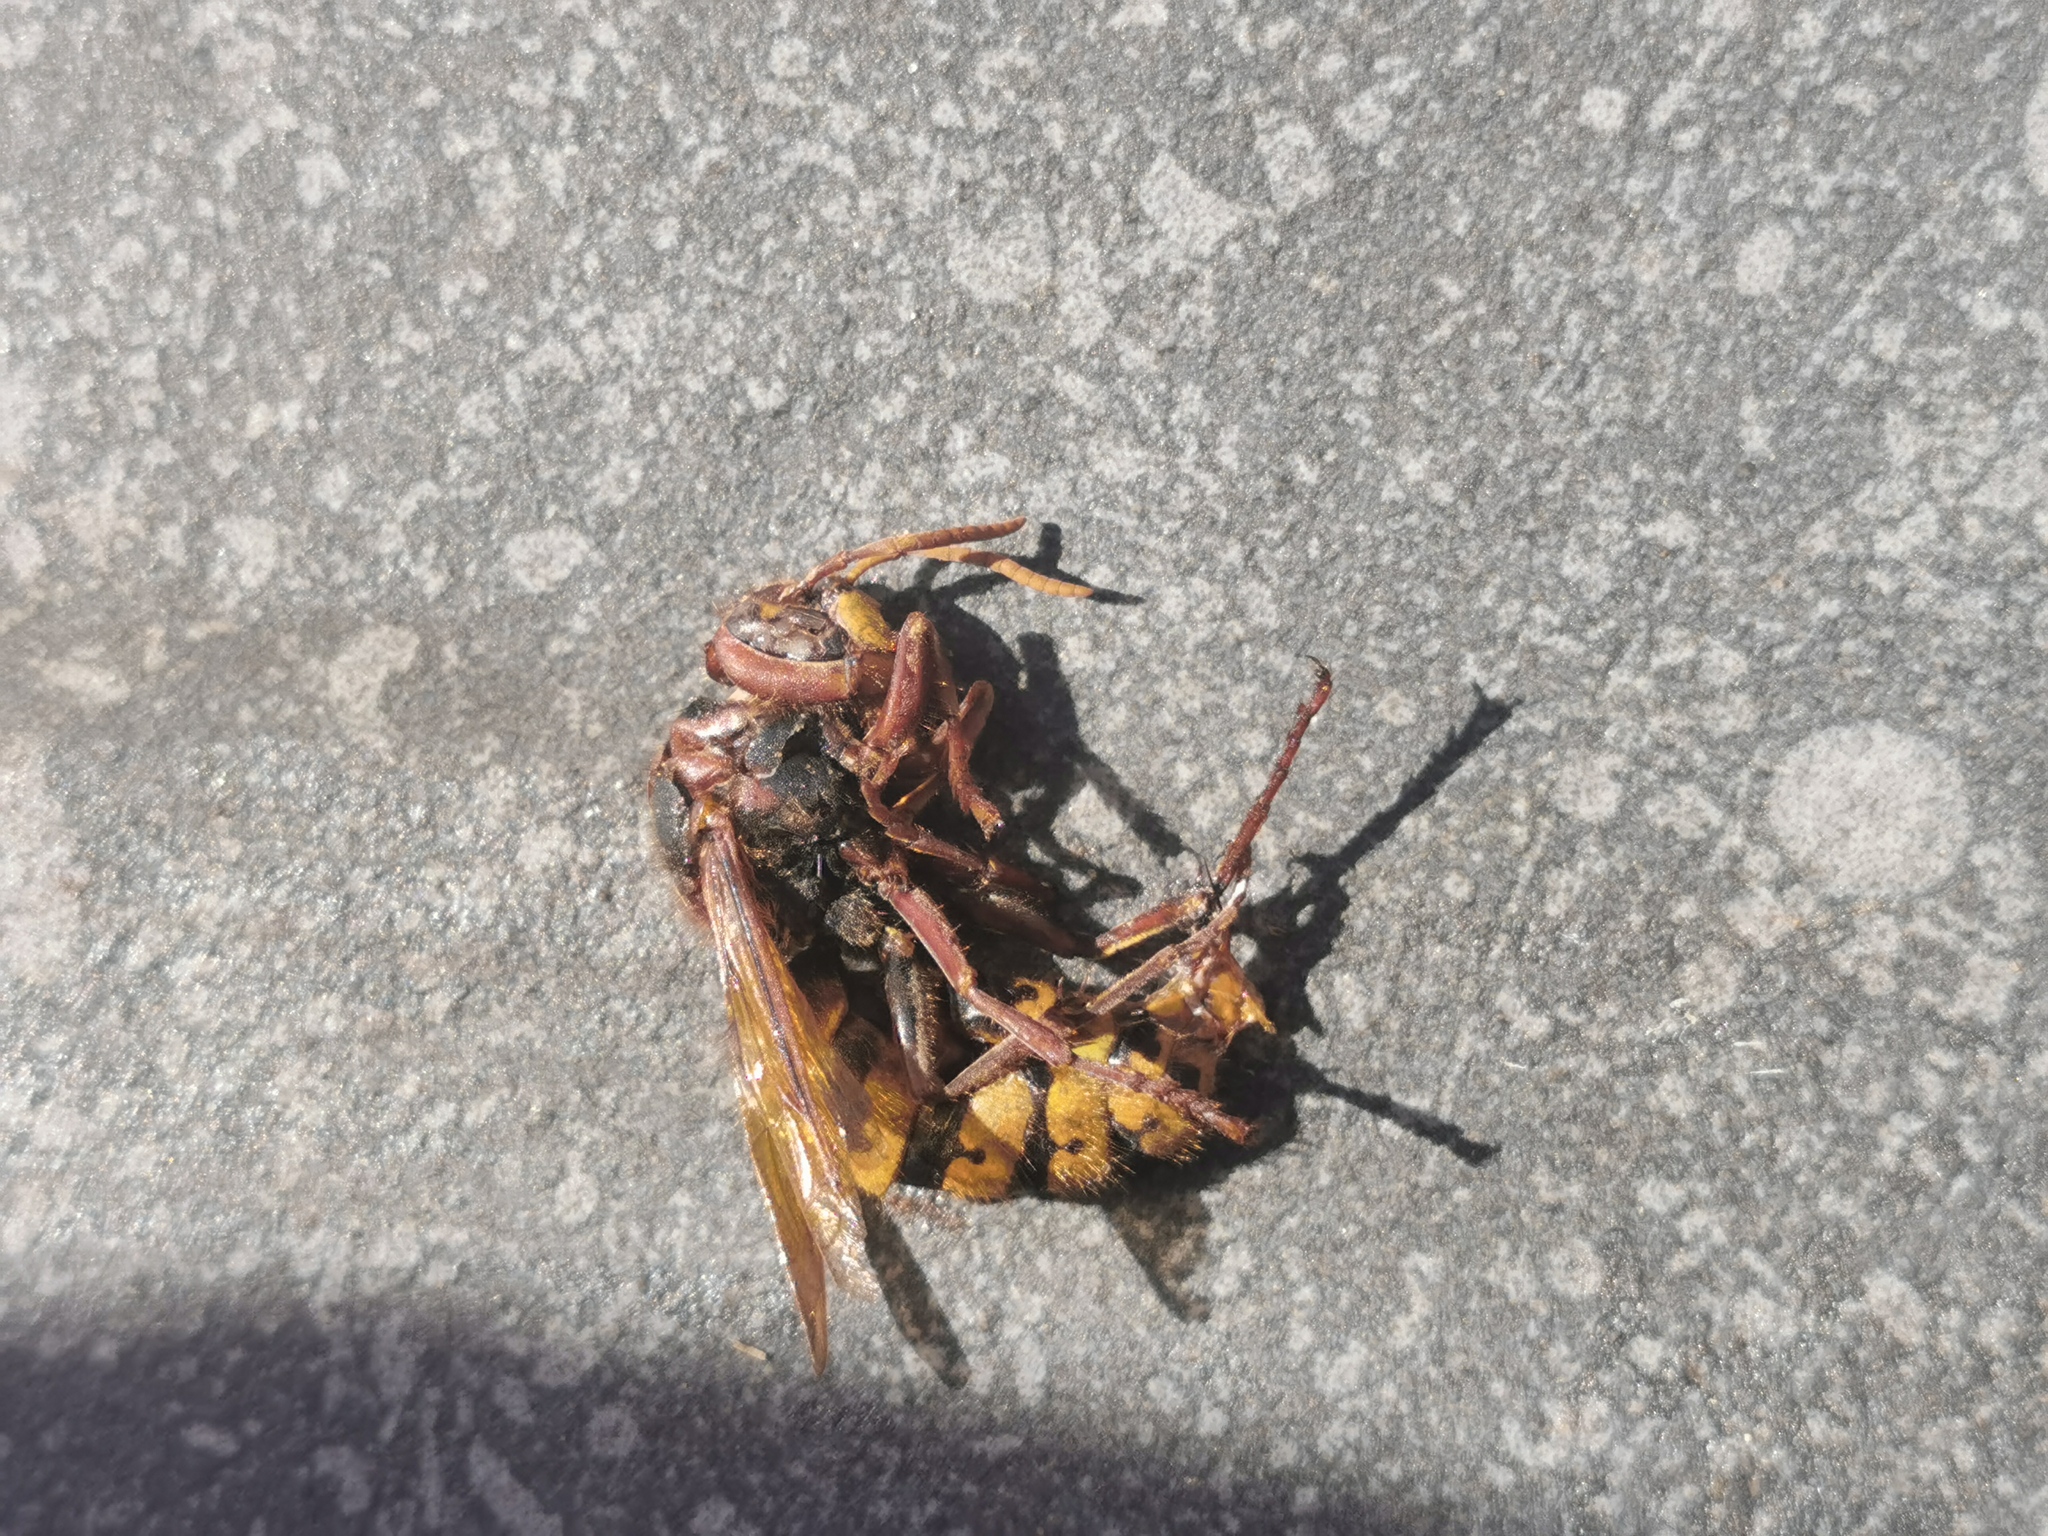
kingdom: Animalia
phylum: Arthropoda
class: Insecta
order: Hymenoptera
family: Vespidae
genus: Vespa
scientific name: Vespa crabro
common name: Hornet
